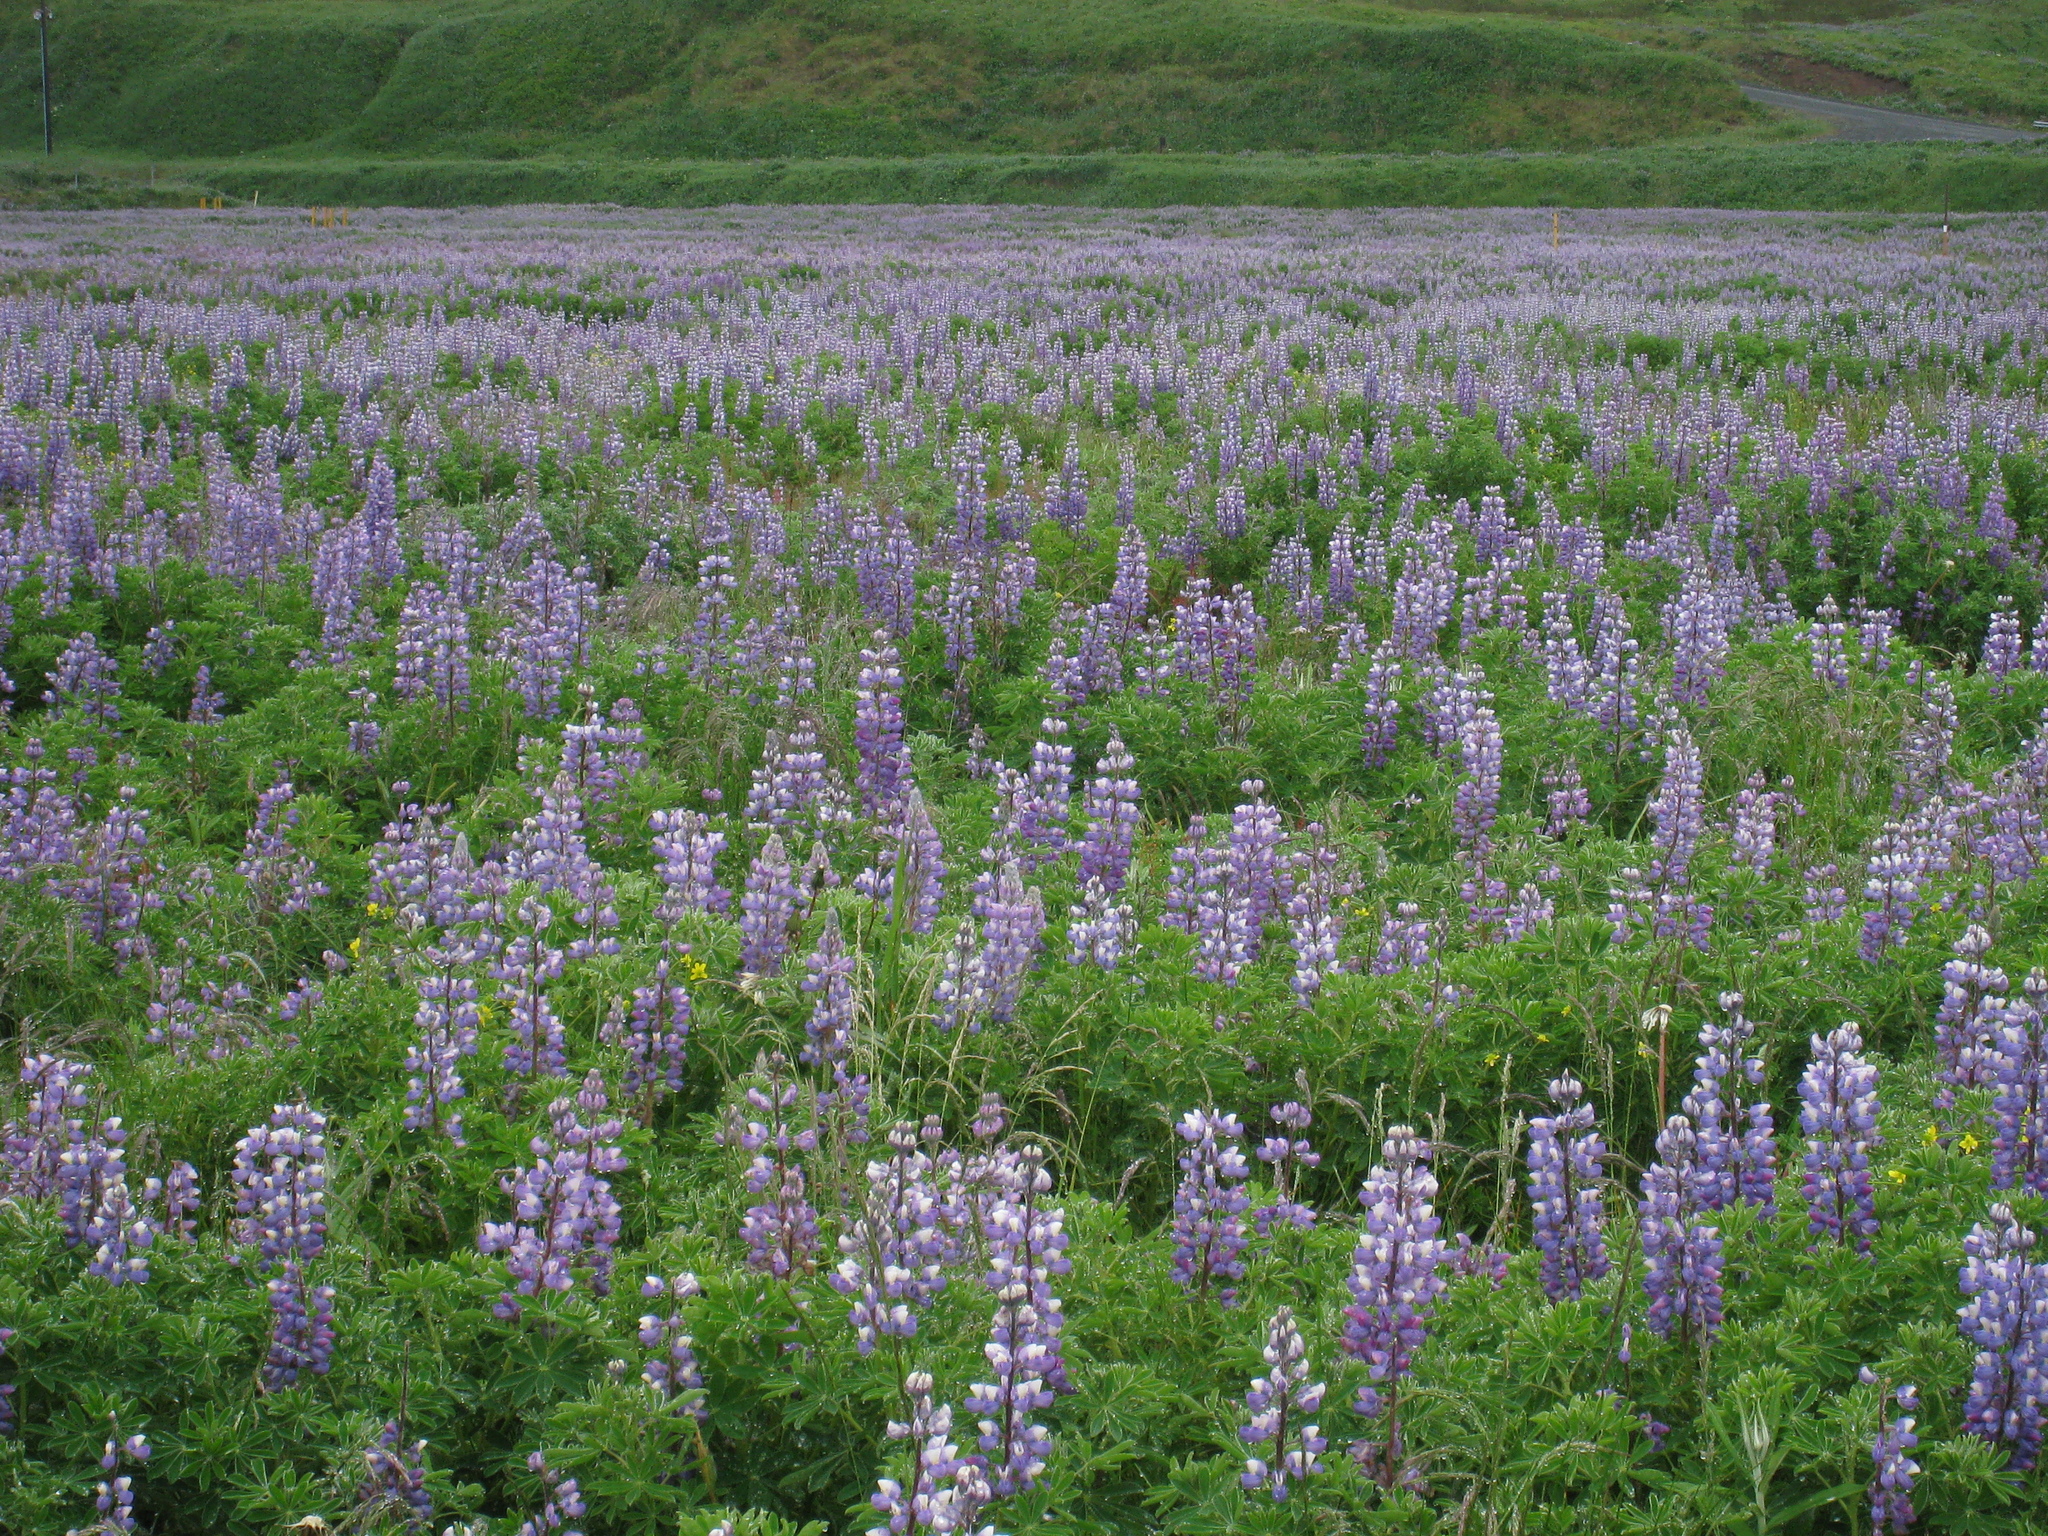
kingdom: Plantae
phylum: Tracheophyta
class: Magnoliopsida
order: Fabales
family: Fabaceae
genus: Lupinus
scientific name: Lupinus nootkatensis
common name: Nootka lupine
